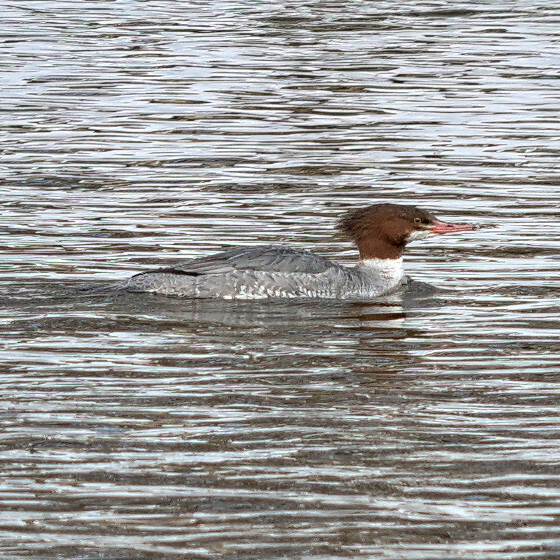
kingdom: Animalia
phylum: Chordata
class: Aves
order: Anseriformes
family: Anatidae
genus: Mergus
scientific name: Mergus merganser
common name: Common merganser
